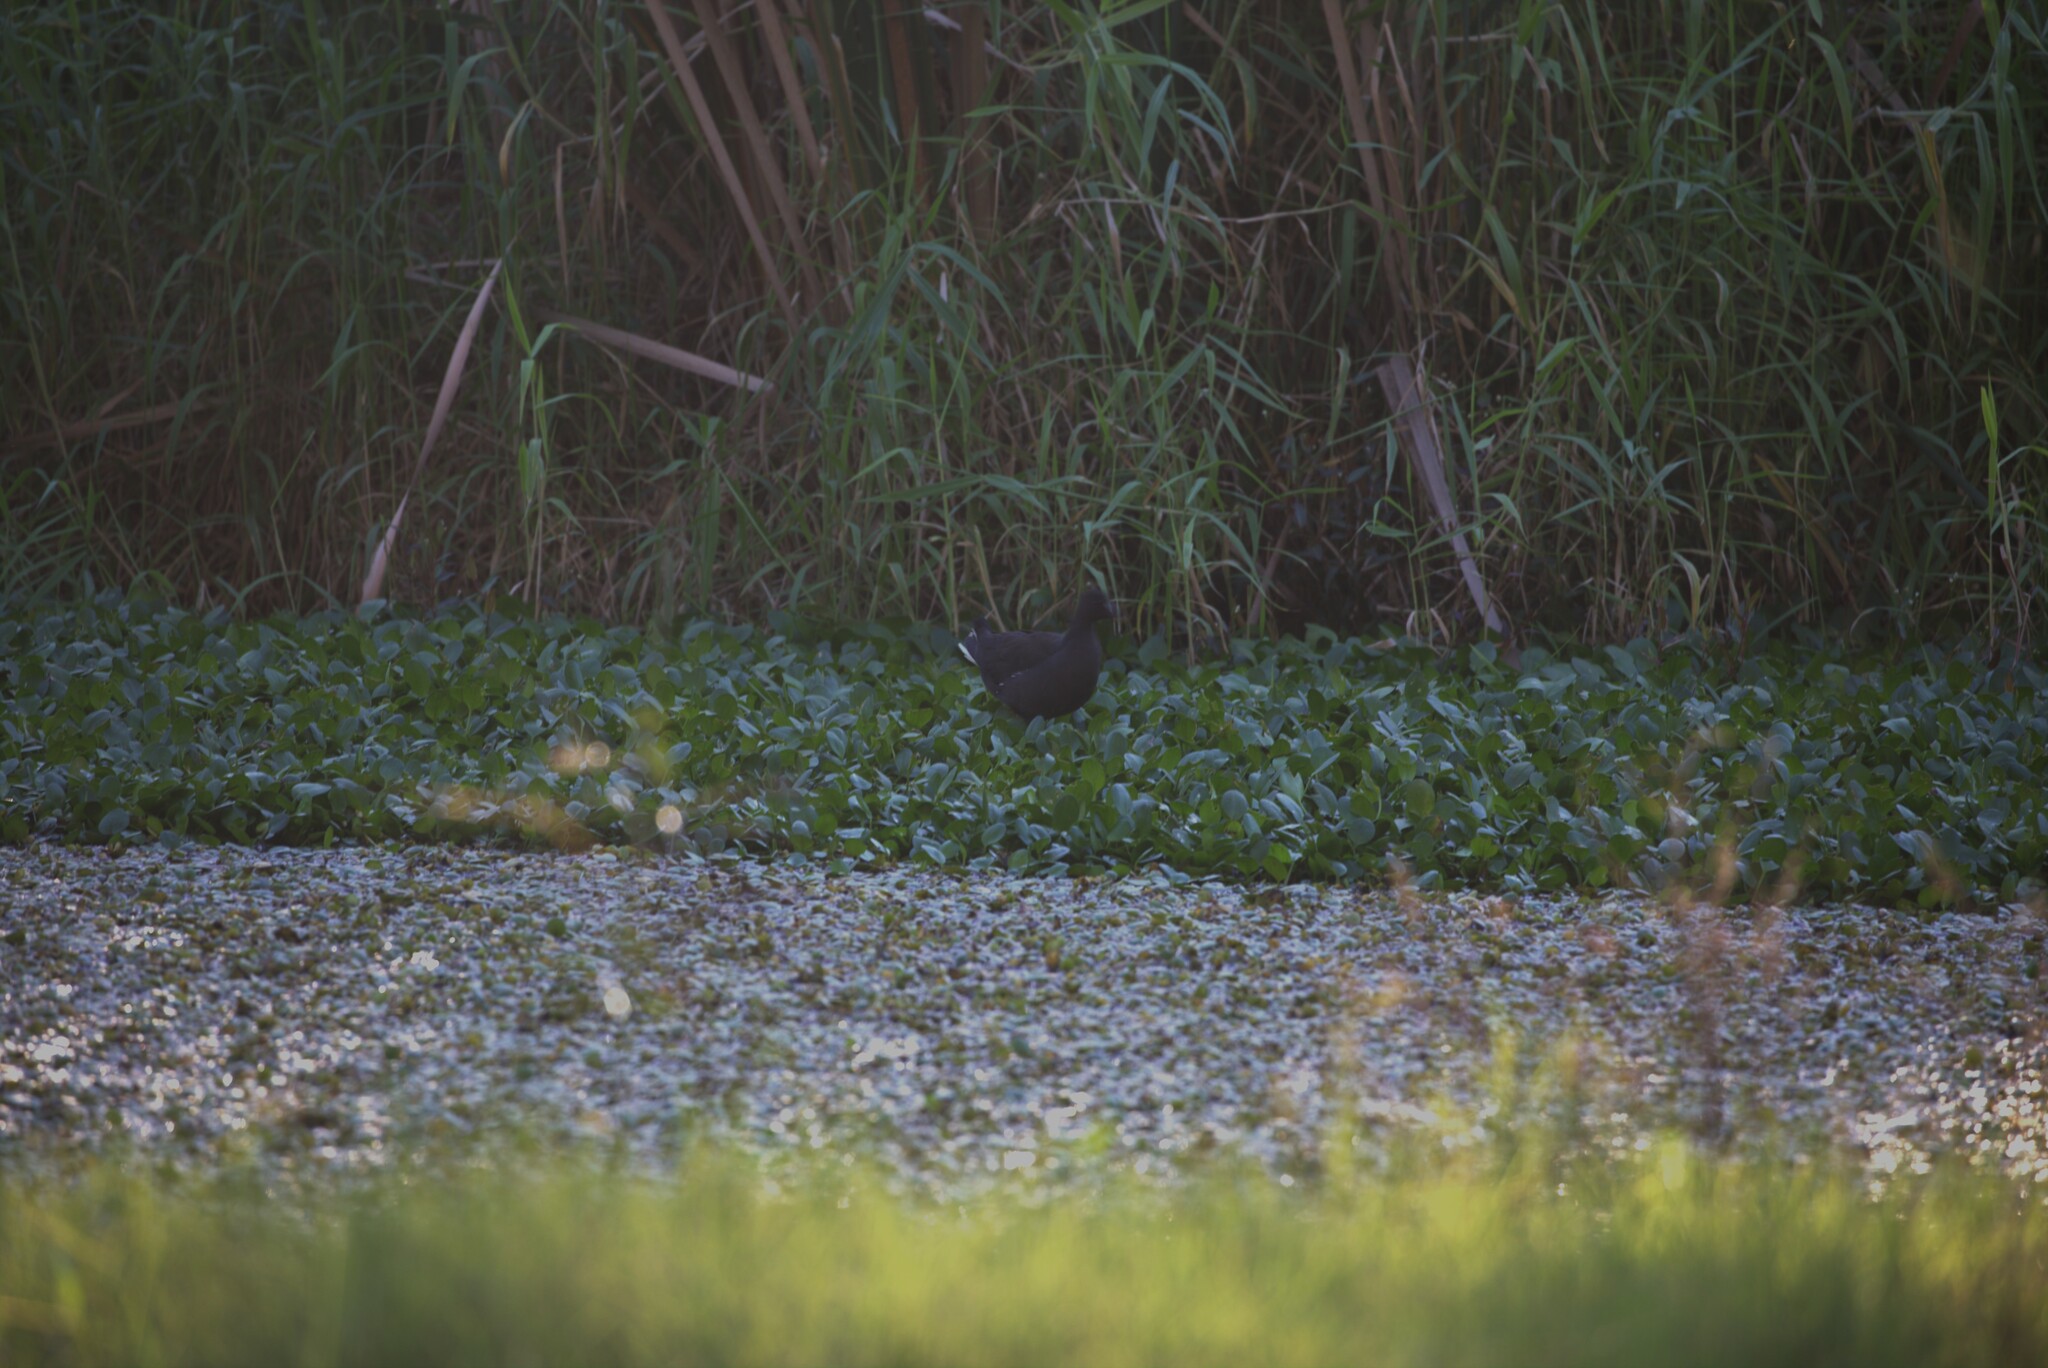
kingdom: Animalia
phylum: Chordata
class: Aves
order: Gruiformes
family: Rallidae
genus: Gallinula
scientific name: Gallinula tenebrosa
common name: Dusky moorhen
